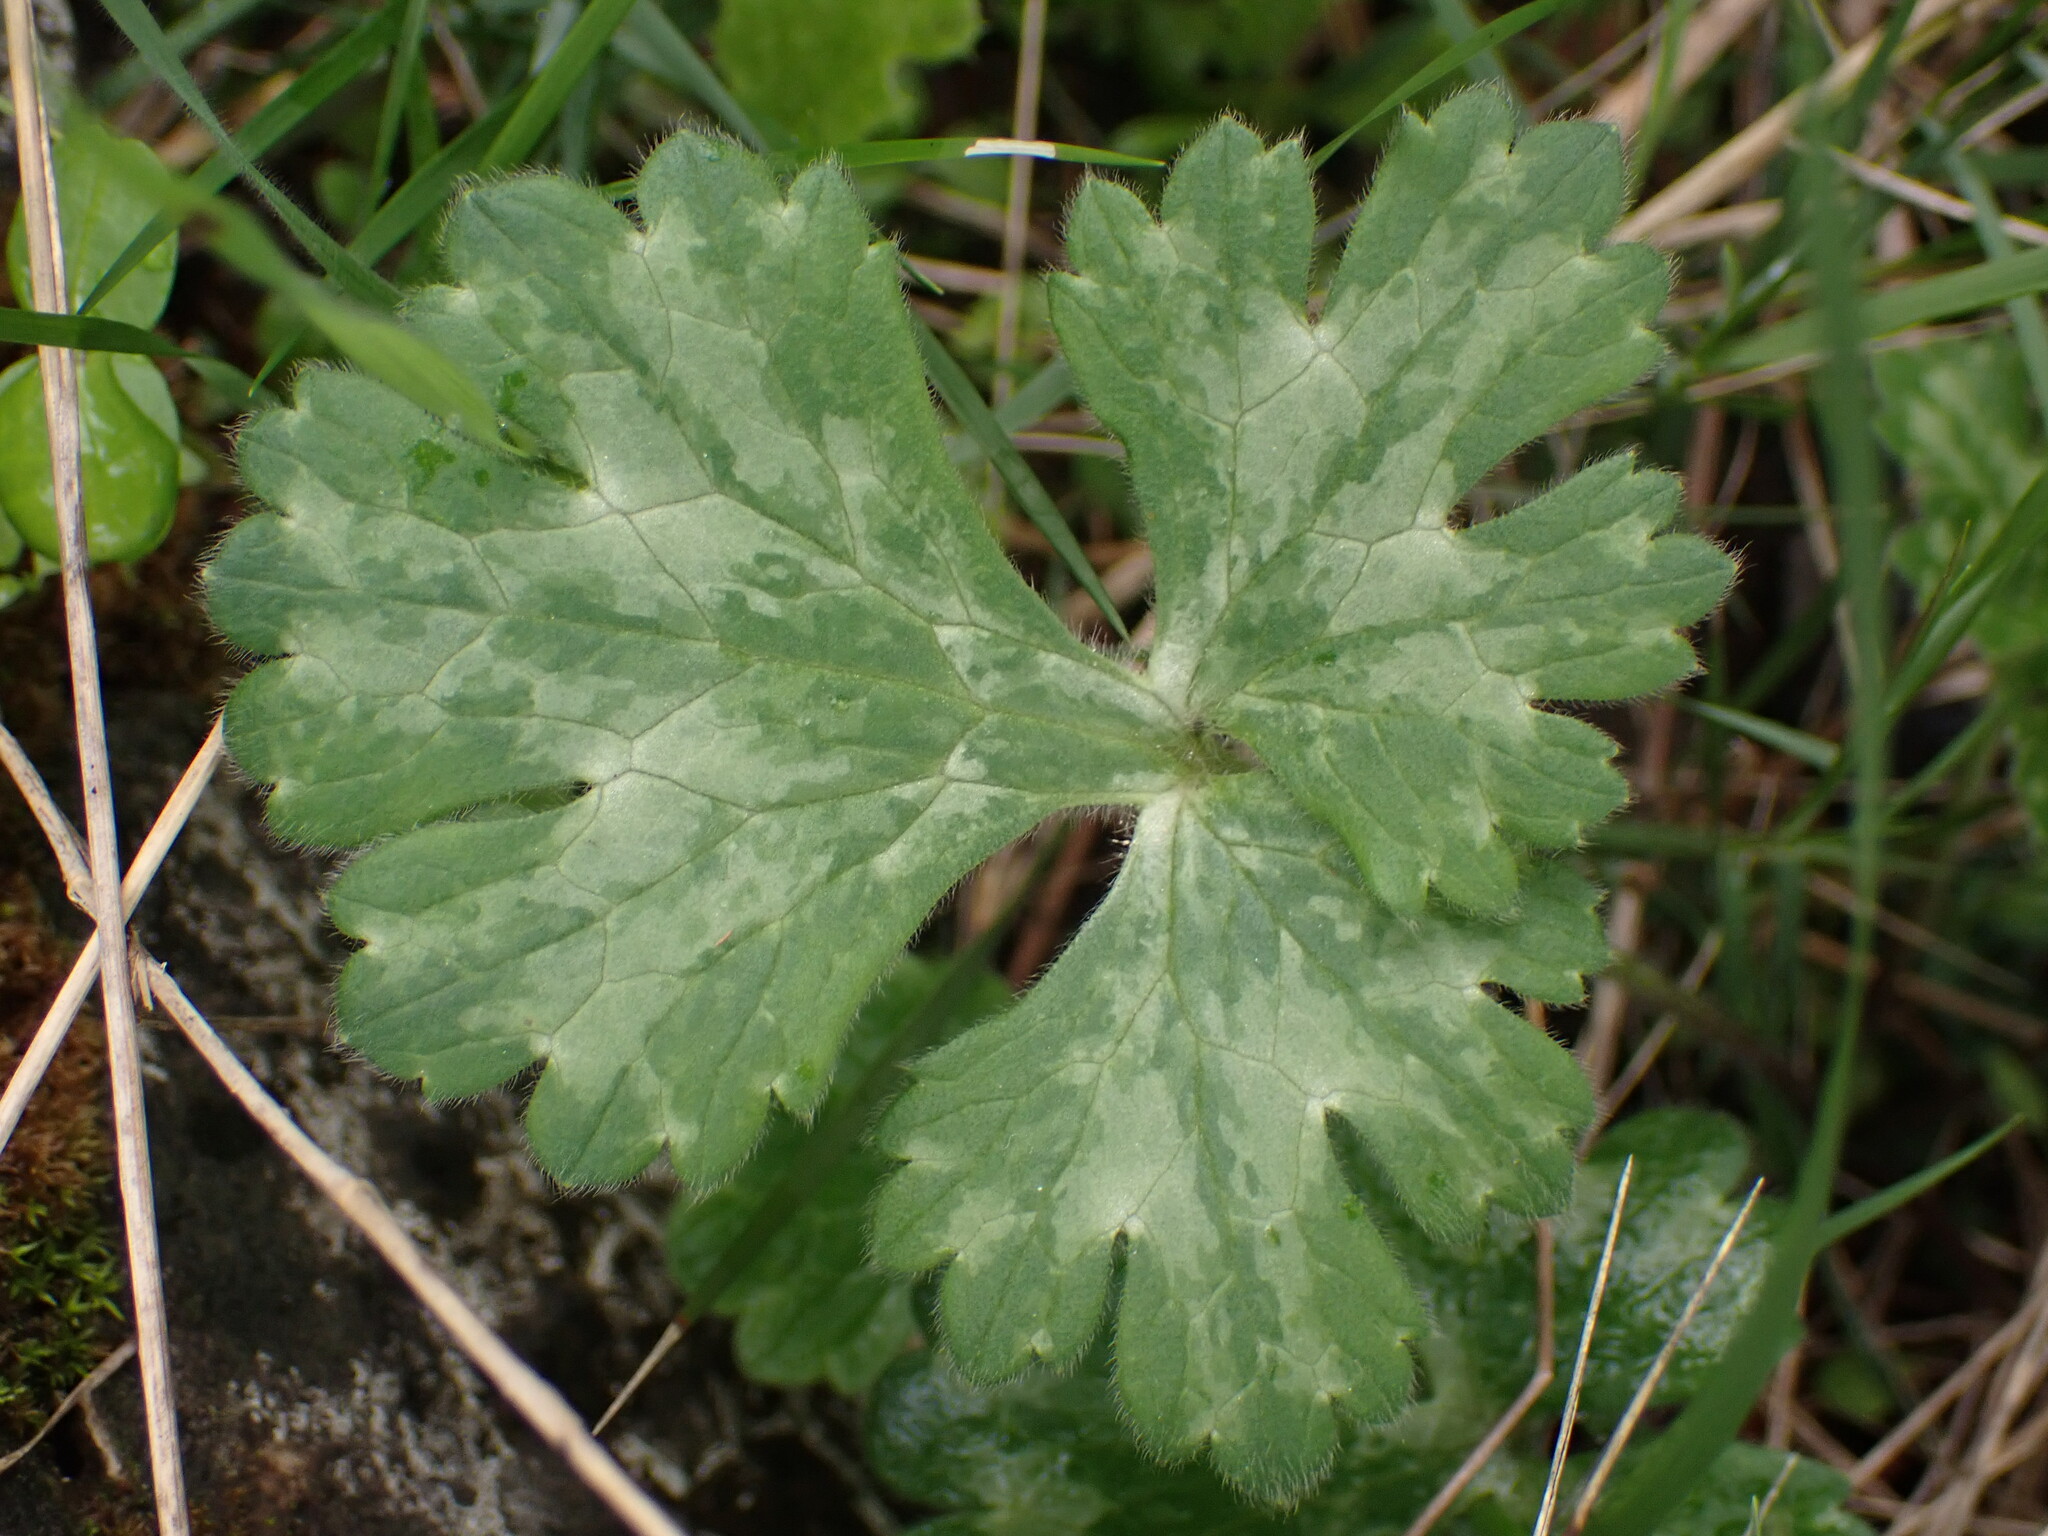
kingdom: Plantae
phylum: Tracheophyta
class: Magnoliopsida
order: Ranunculales
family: Ranunculaceae
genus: Ranunculus
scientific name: Ranunculus bulbosus
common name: Bulbous buttercup
